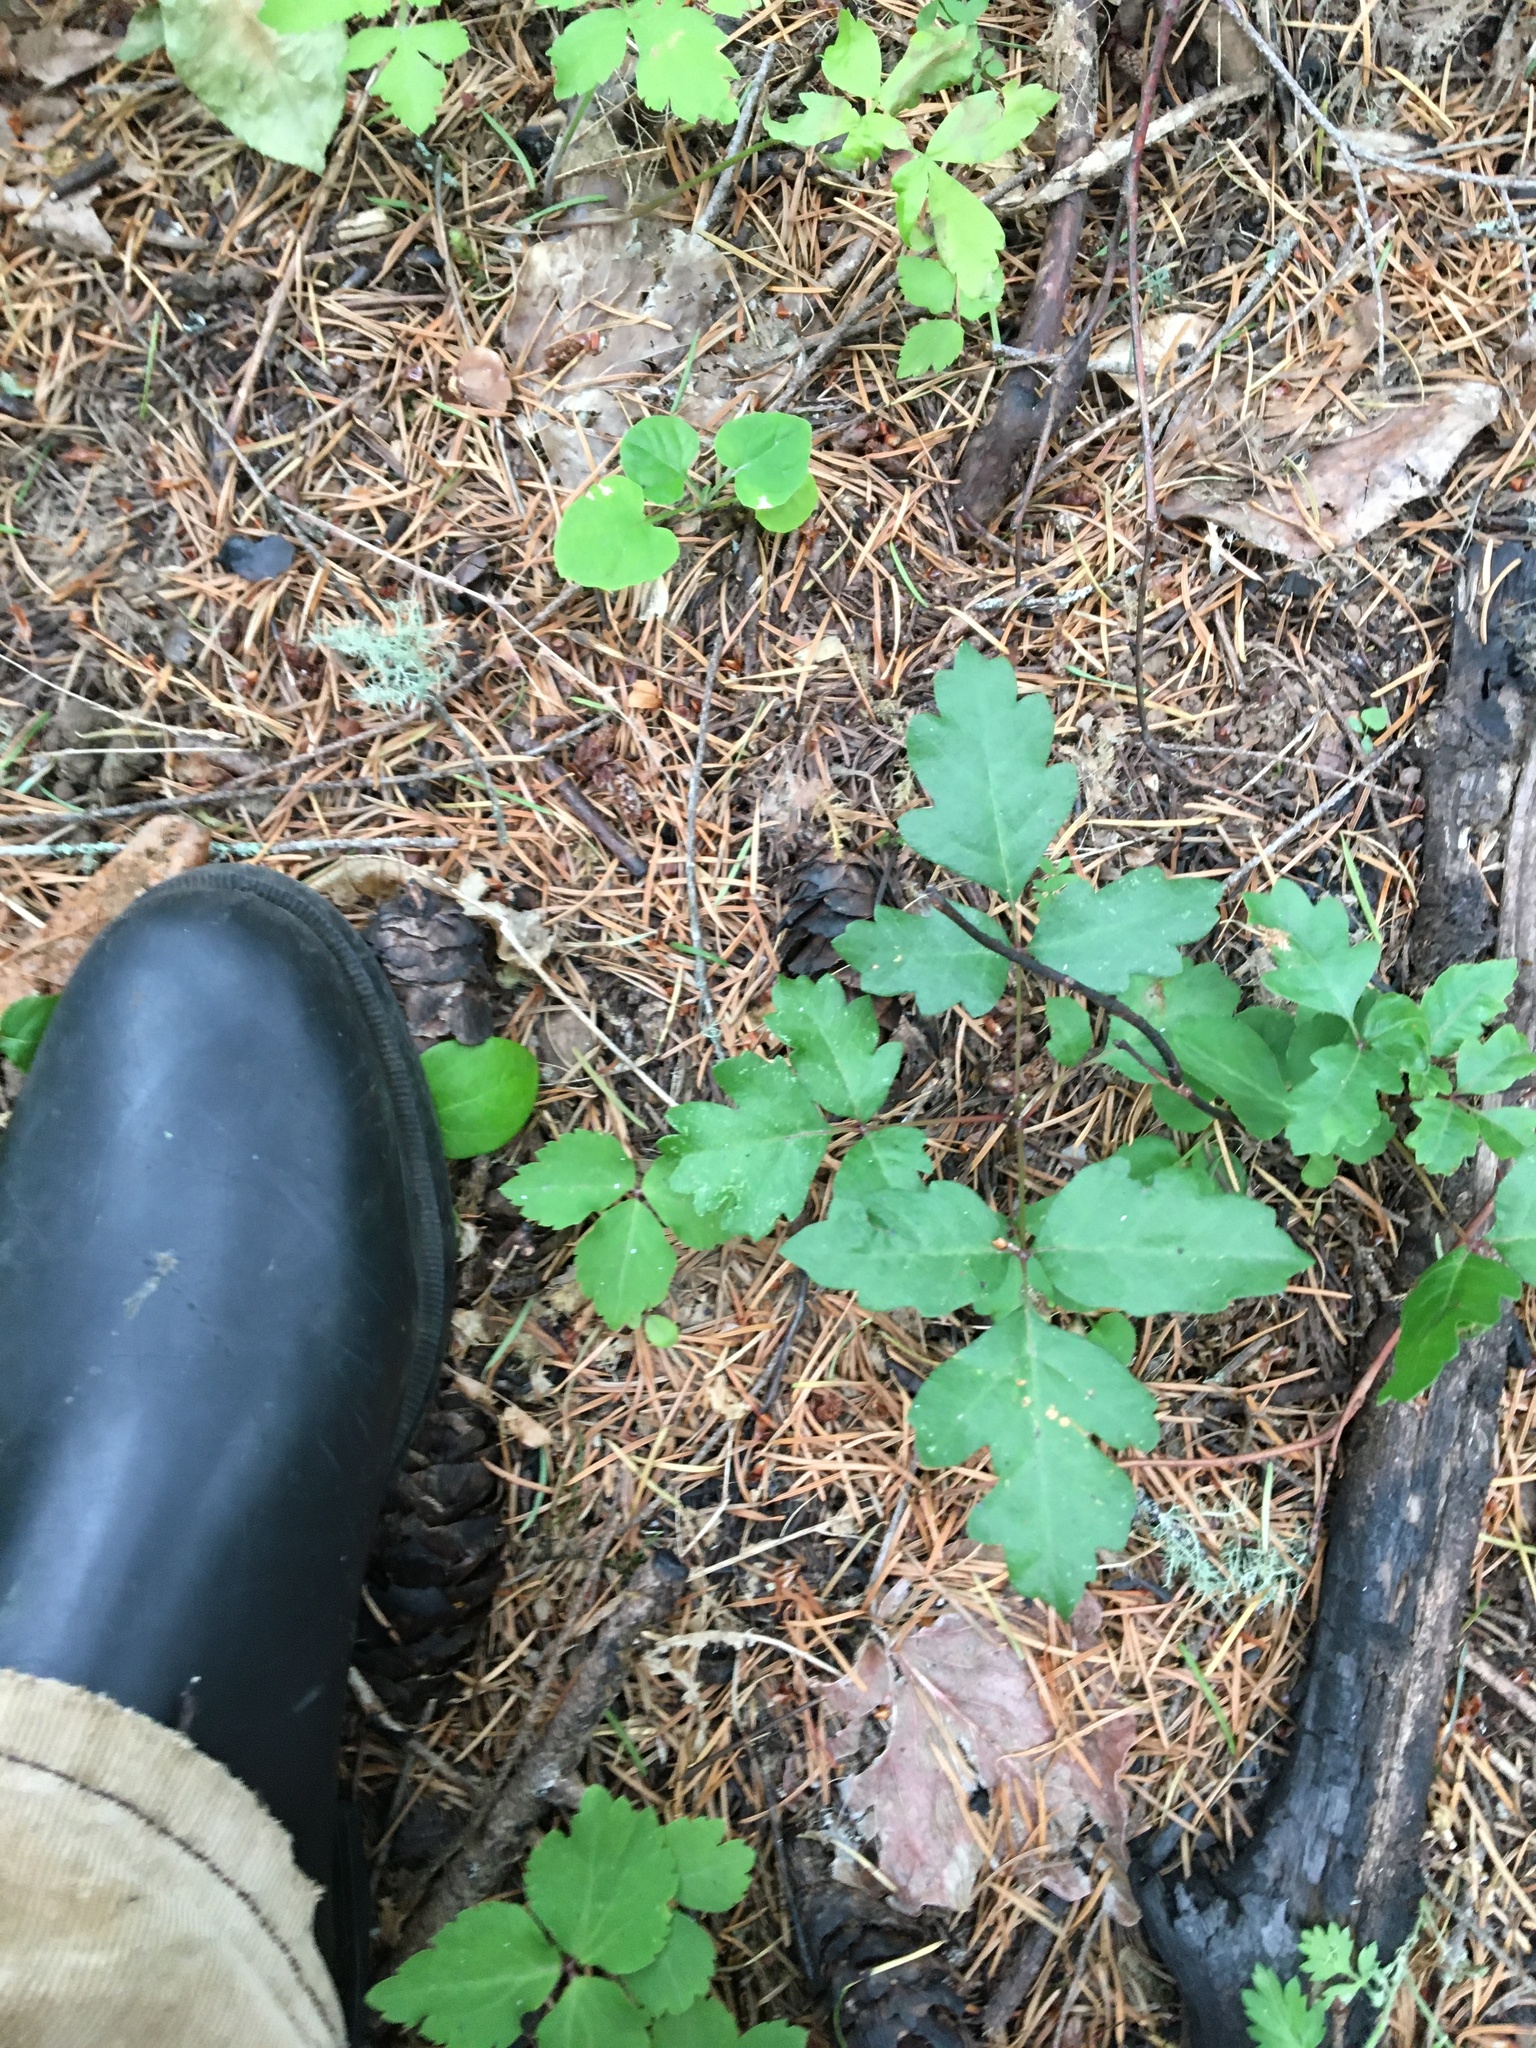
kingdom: Plantae
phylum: Tracheophyta
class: Magnoliopsida
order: Sapindales
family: Anacardiaceae
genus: Toxicodendron
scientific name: Toxicodendron diversilobum
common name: Pacific poison-oak
